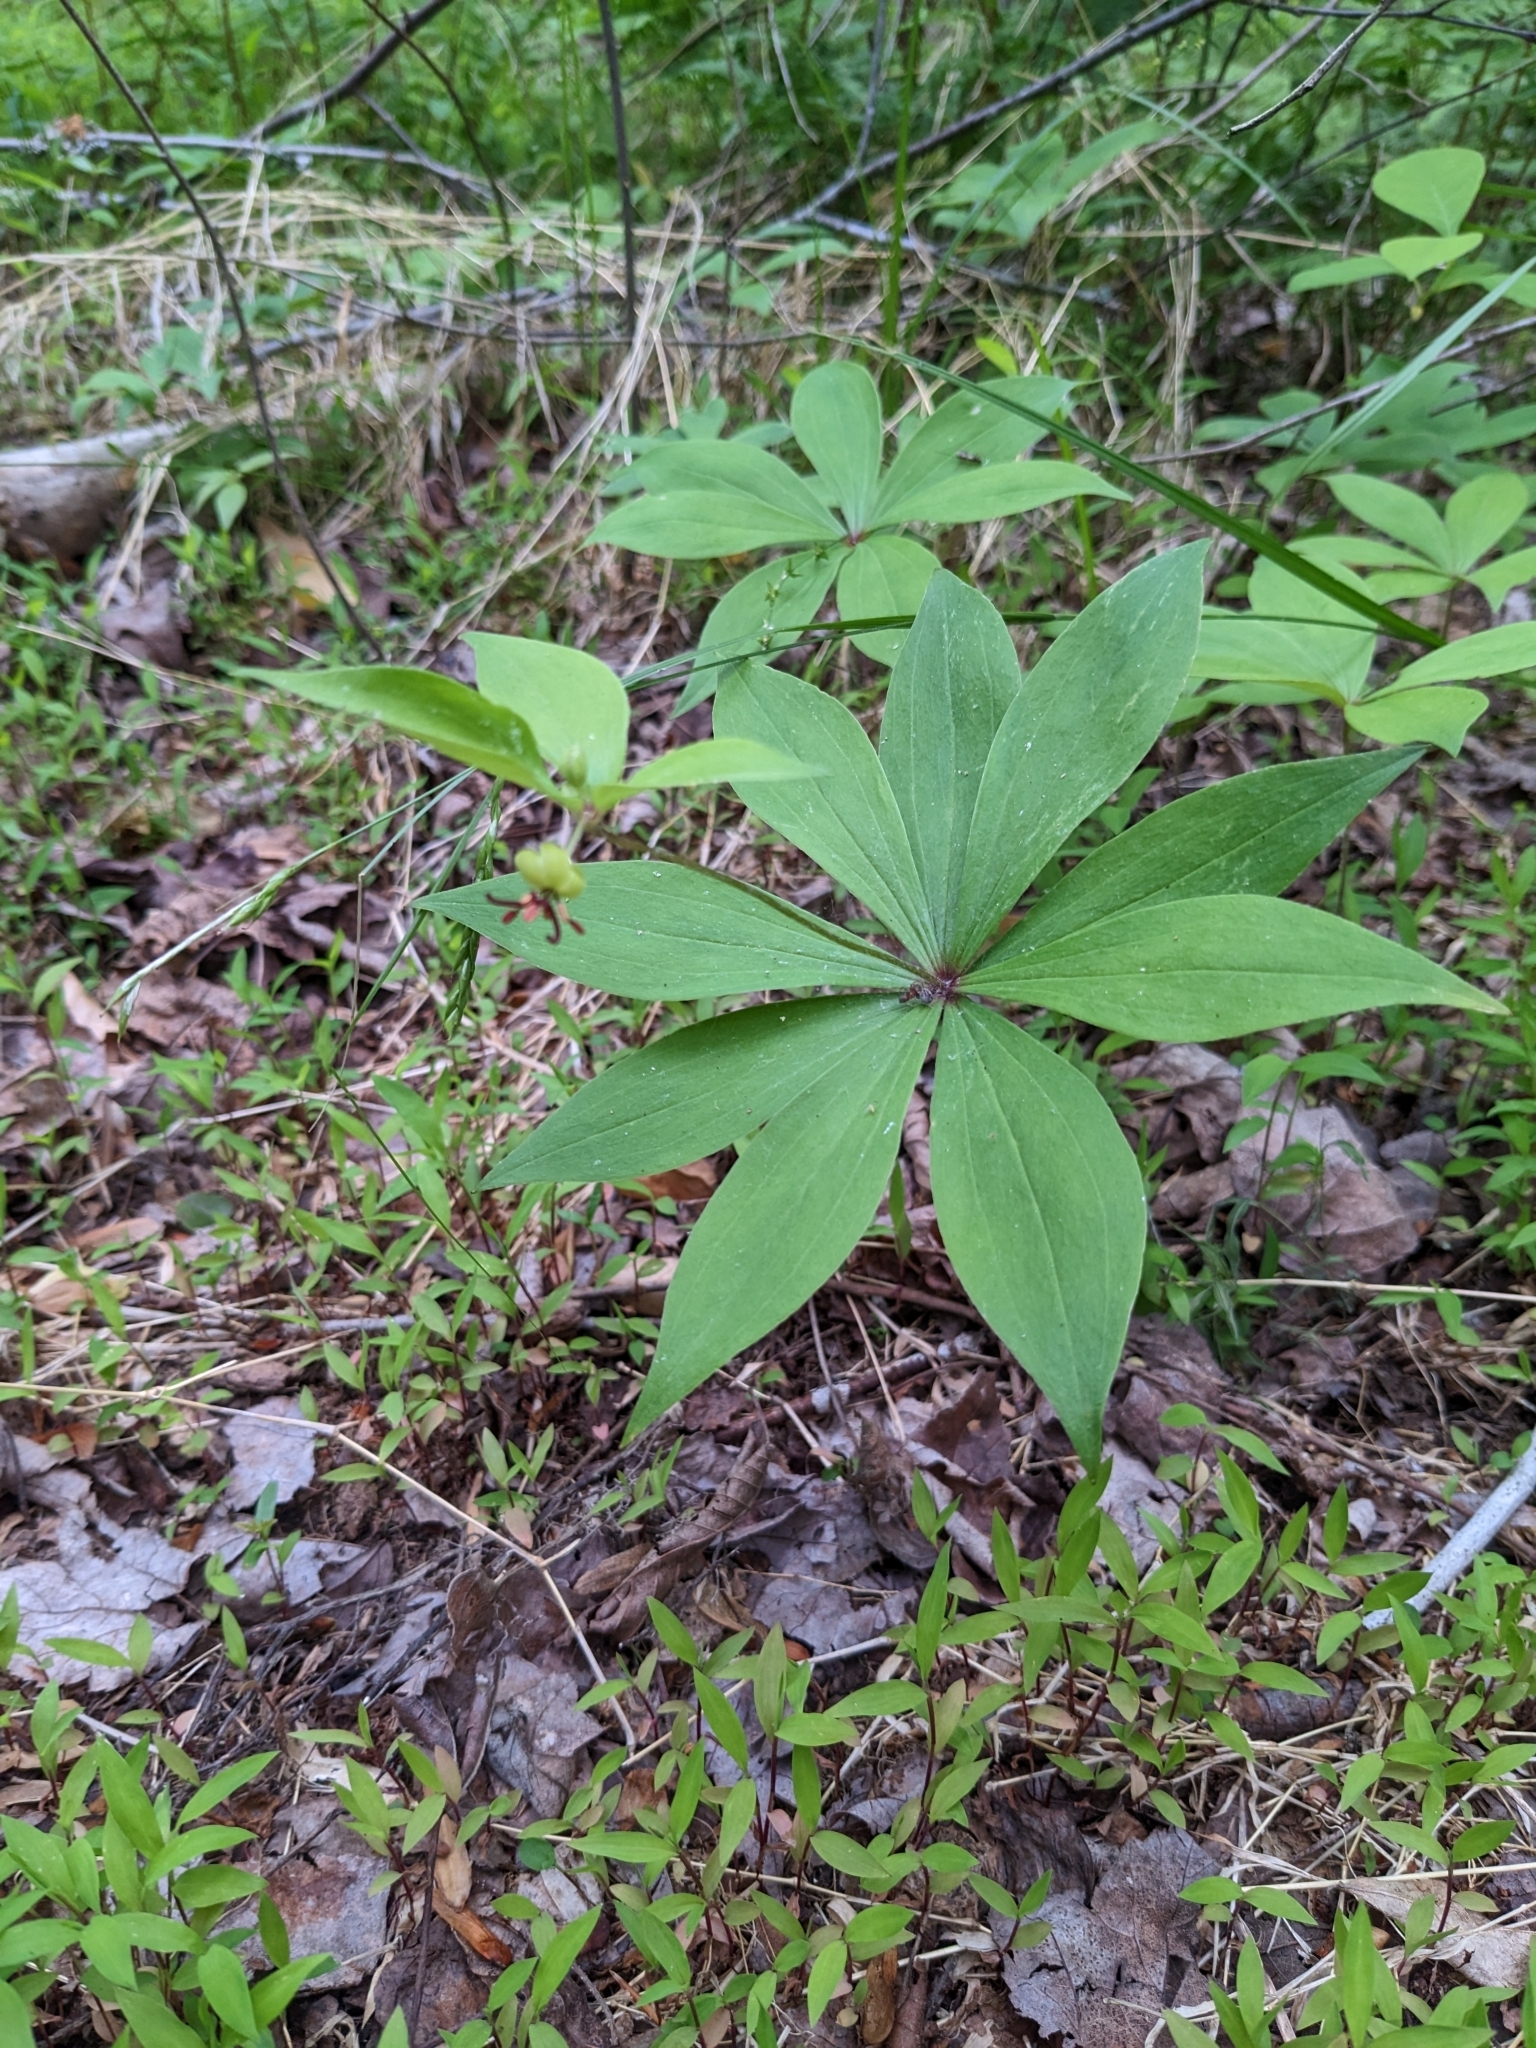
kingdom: Plantae
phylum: Tracheophyta
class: Liliopsida
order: Liliales
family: Liliaceae
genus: Medeola
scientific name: Medeola virginiana
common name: Indian cucumber-root
